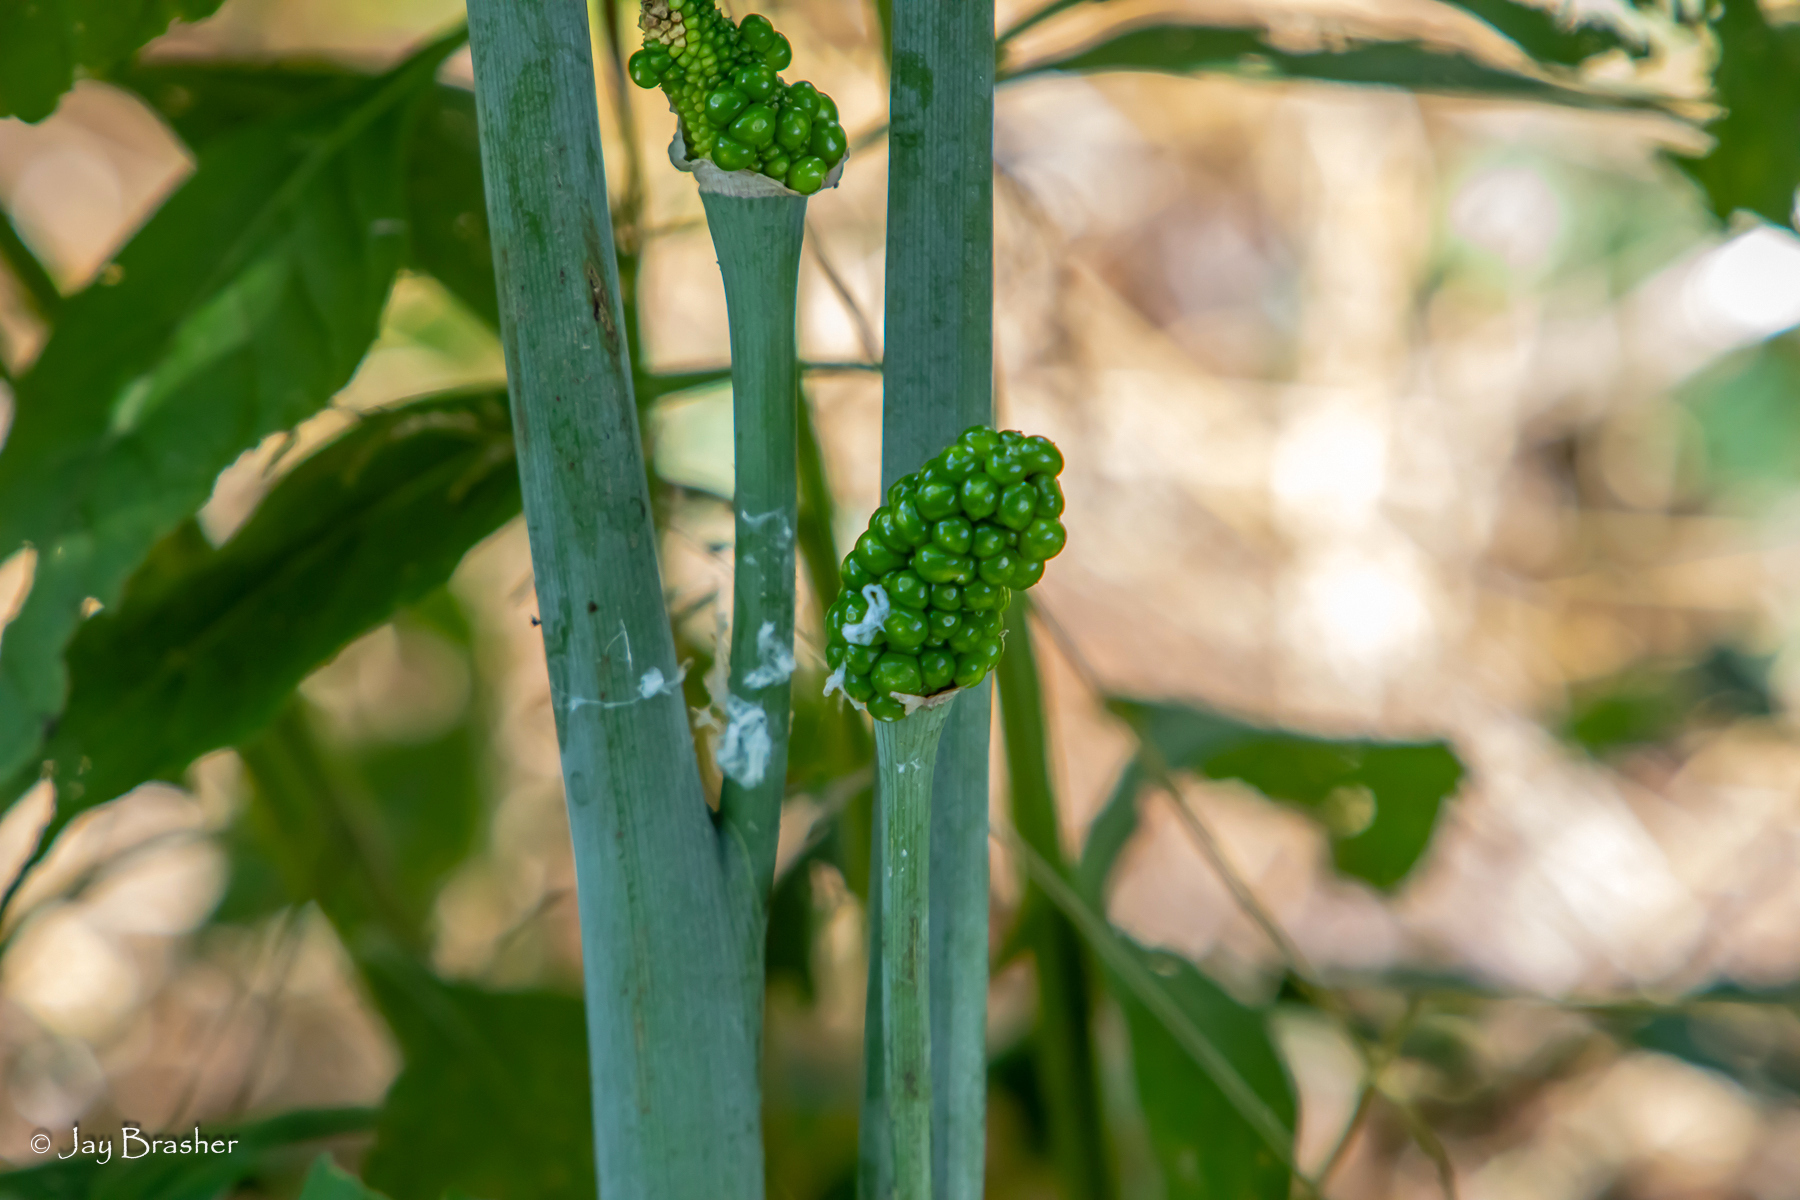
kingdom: Plantae
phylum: Tracheophyta
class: Liliopsida
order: Alismatales
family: Araceae
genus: Arisaema
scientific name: Arisaema dracontium
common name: Dragon-arum
